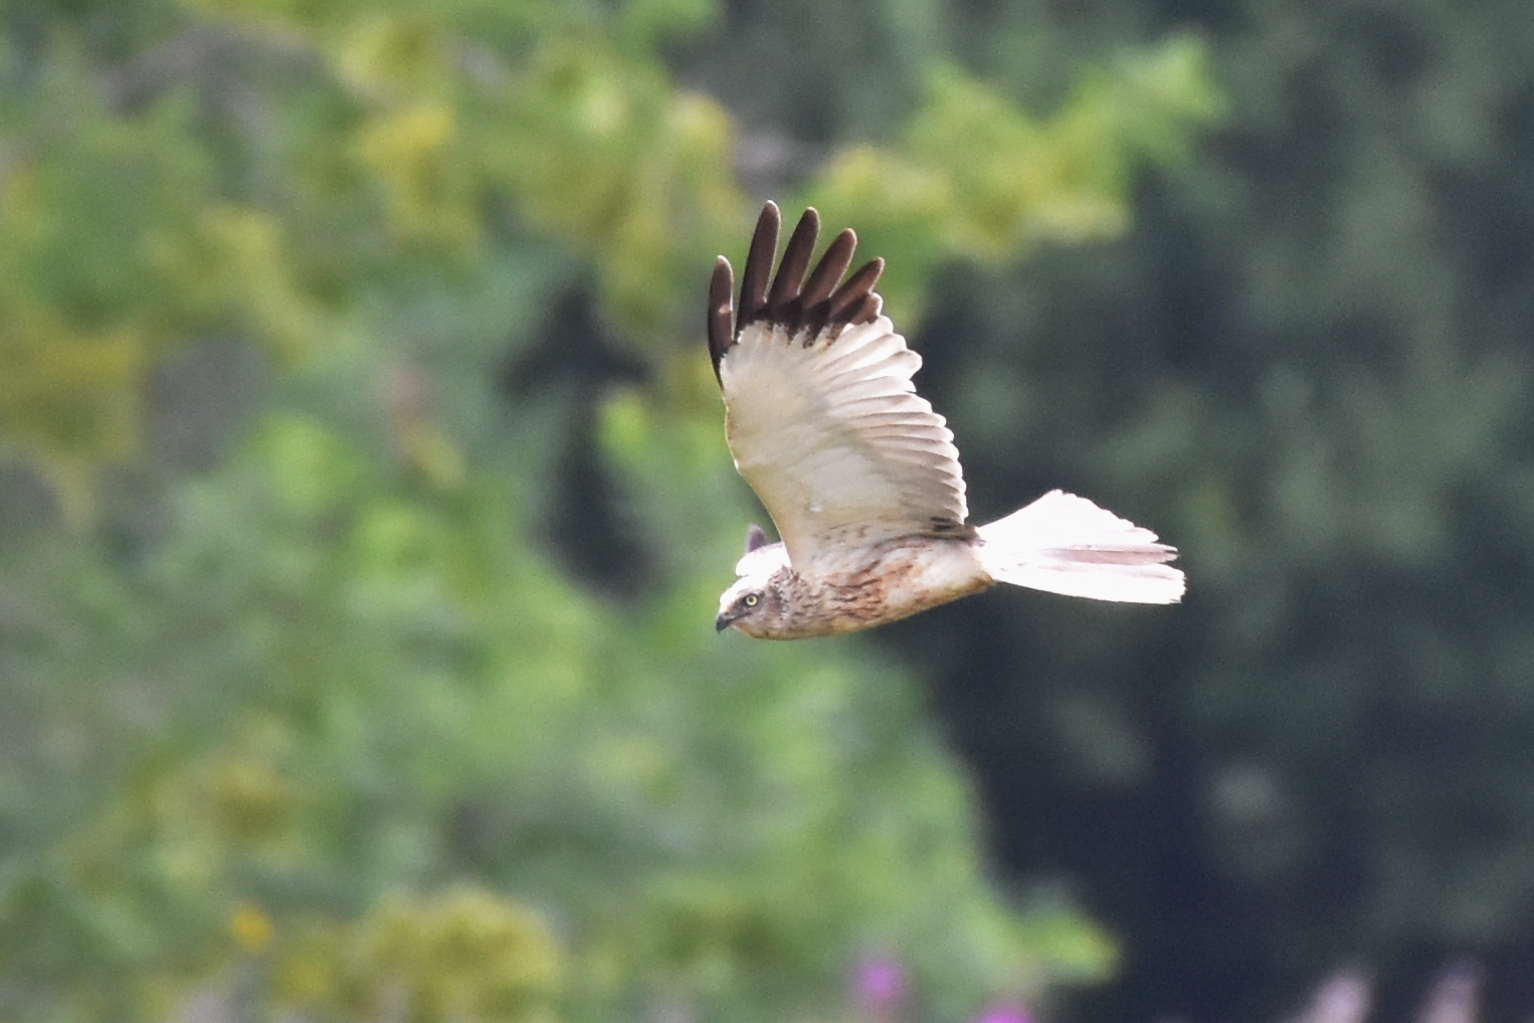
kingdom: Animalia
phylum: Chordata
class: Aves
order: Accipitriformes
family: Accipitridae
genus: Circus
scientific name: Circus aeruginosus
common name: Western marsh harrier
